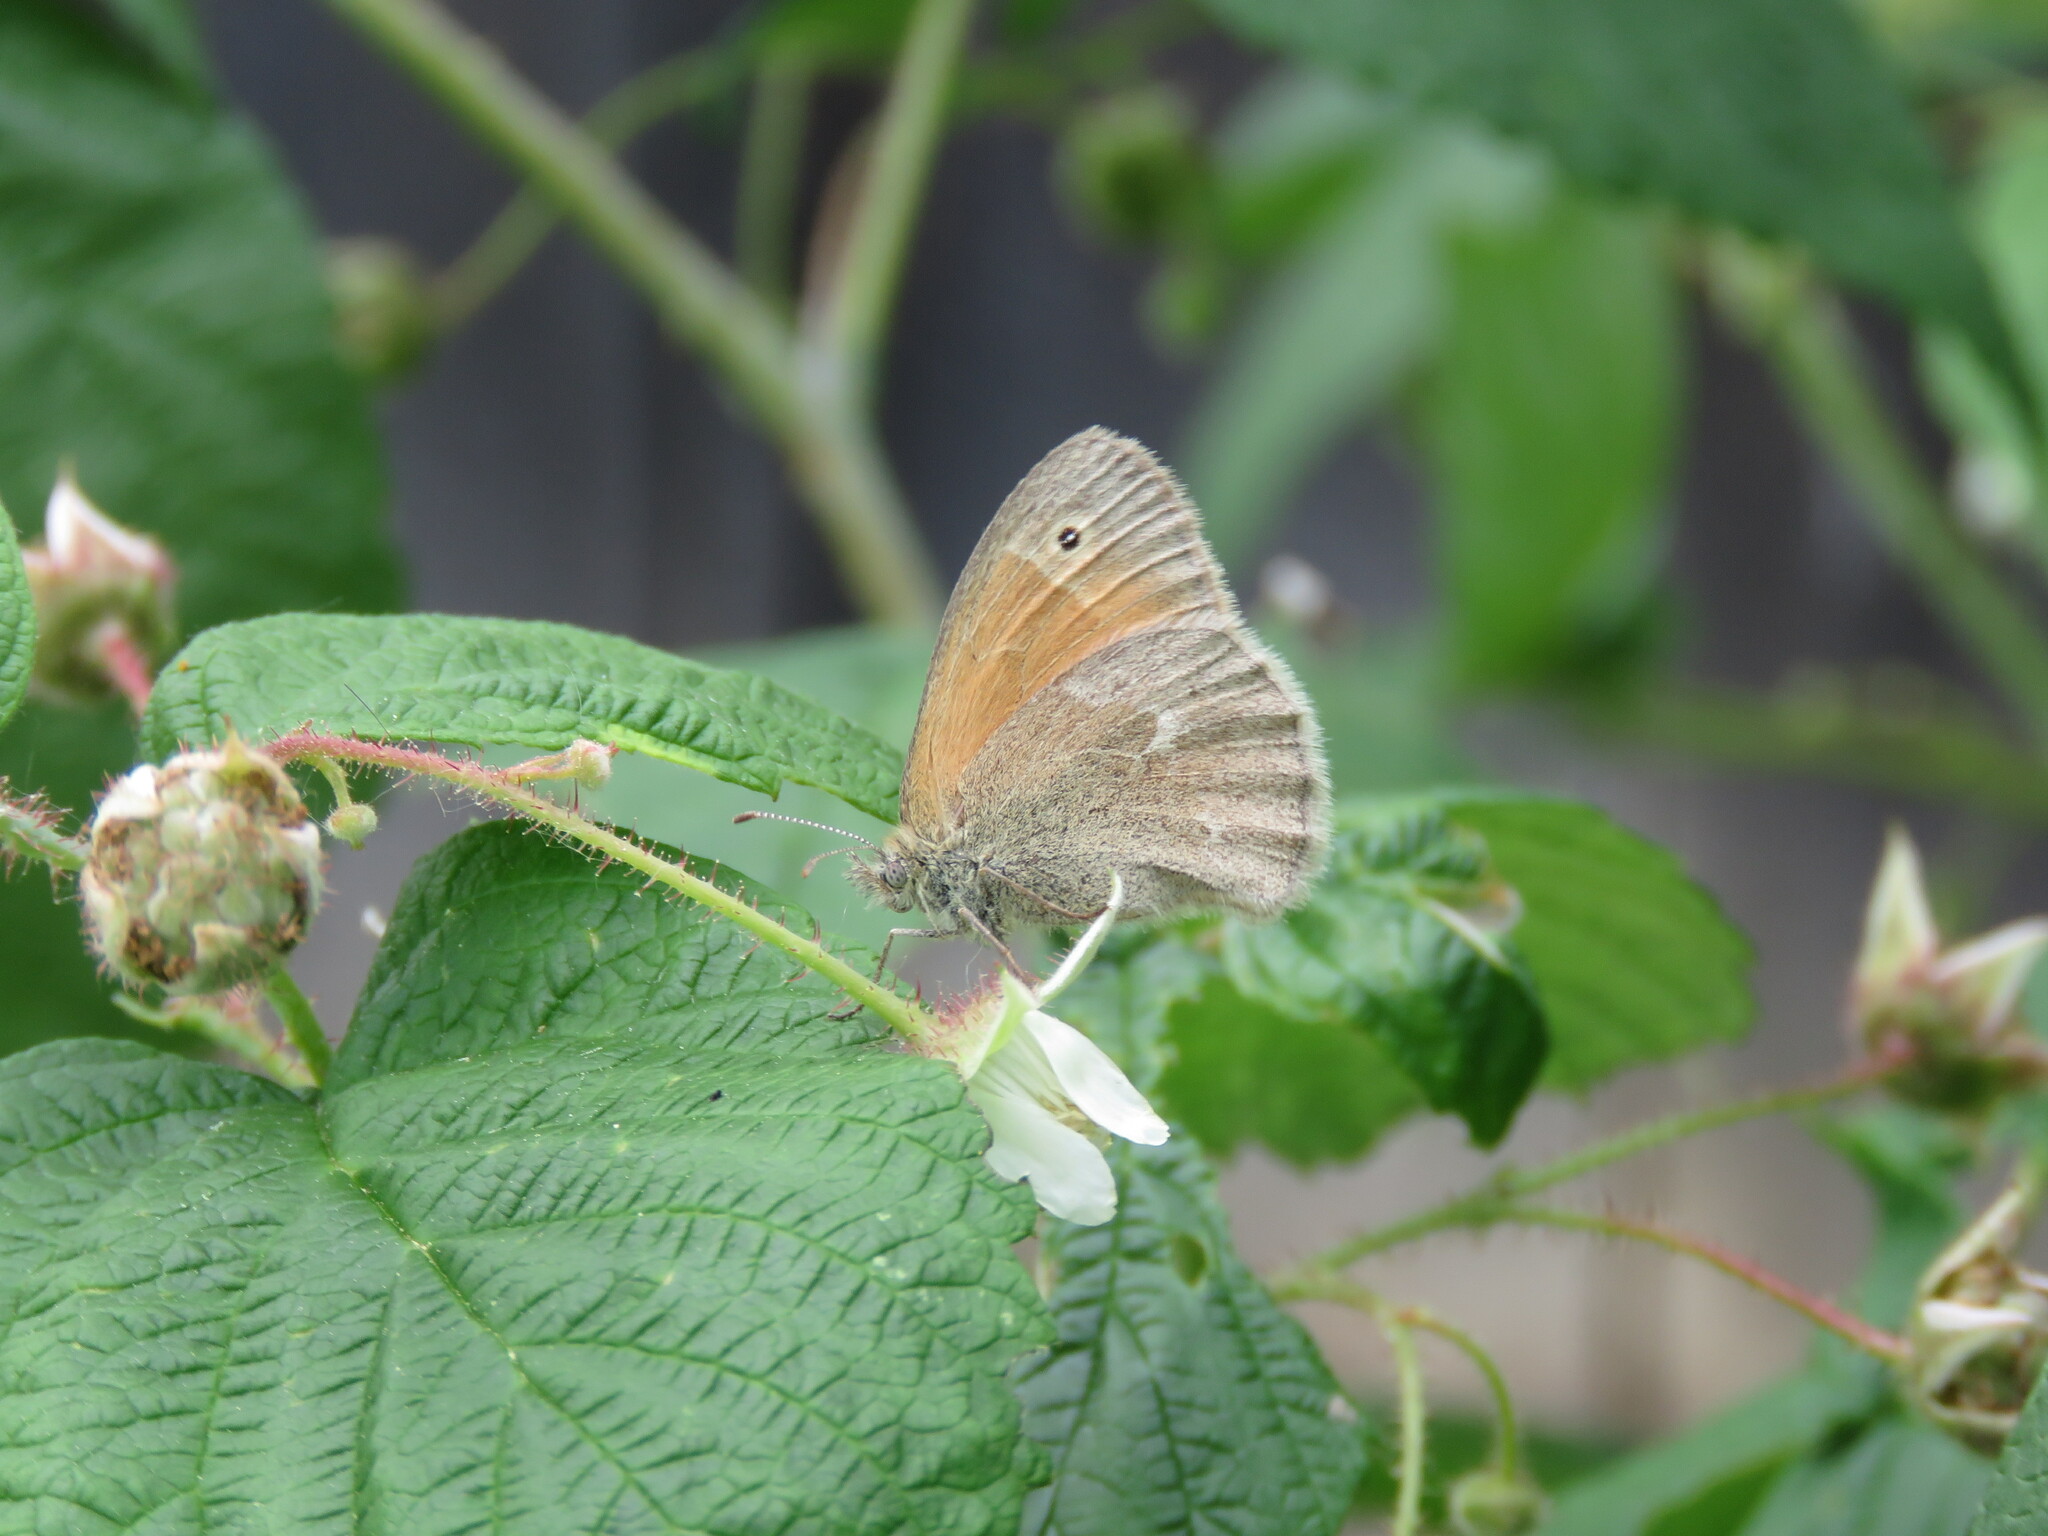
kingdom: Animalia
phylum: Arthropoda
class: Insecta
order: Lepidoptera
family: Nymphalidae
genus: Coenonympha
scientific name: Coenonympha california
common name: Common ringlet
